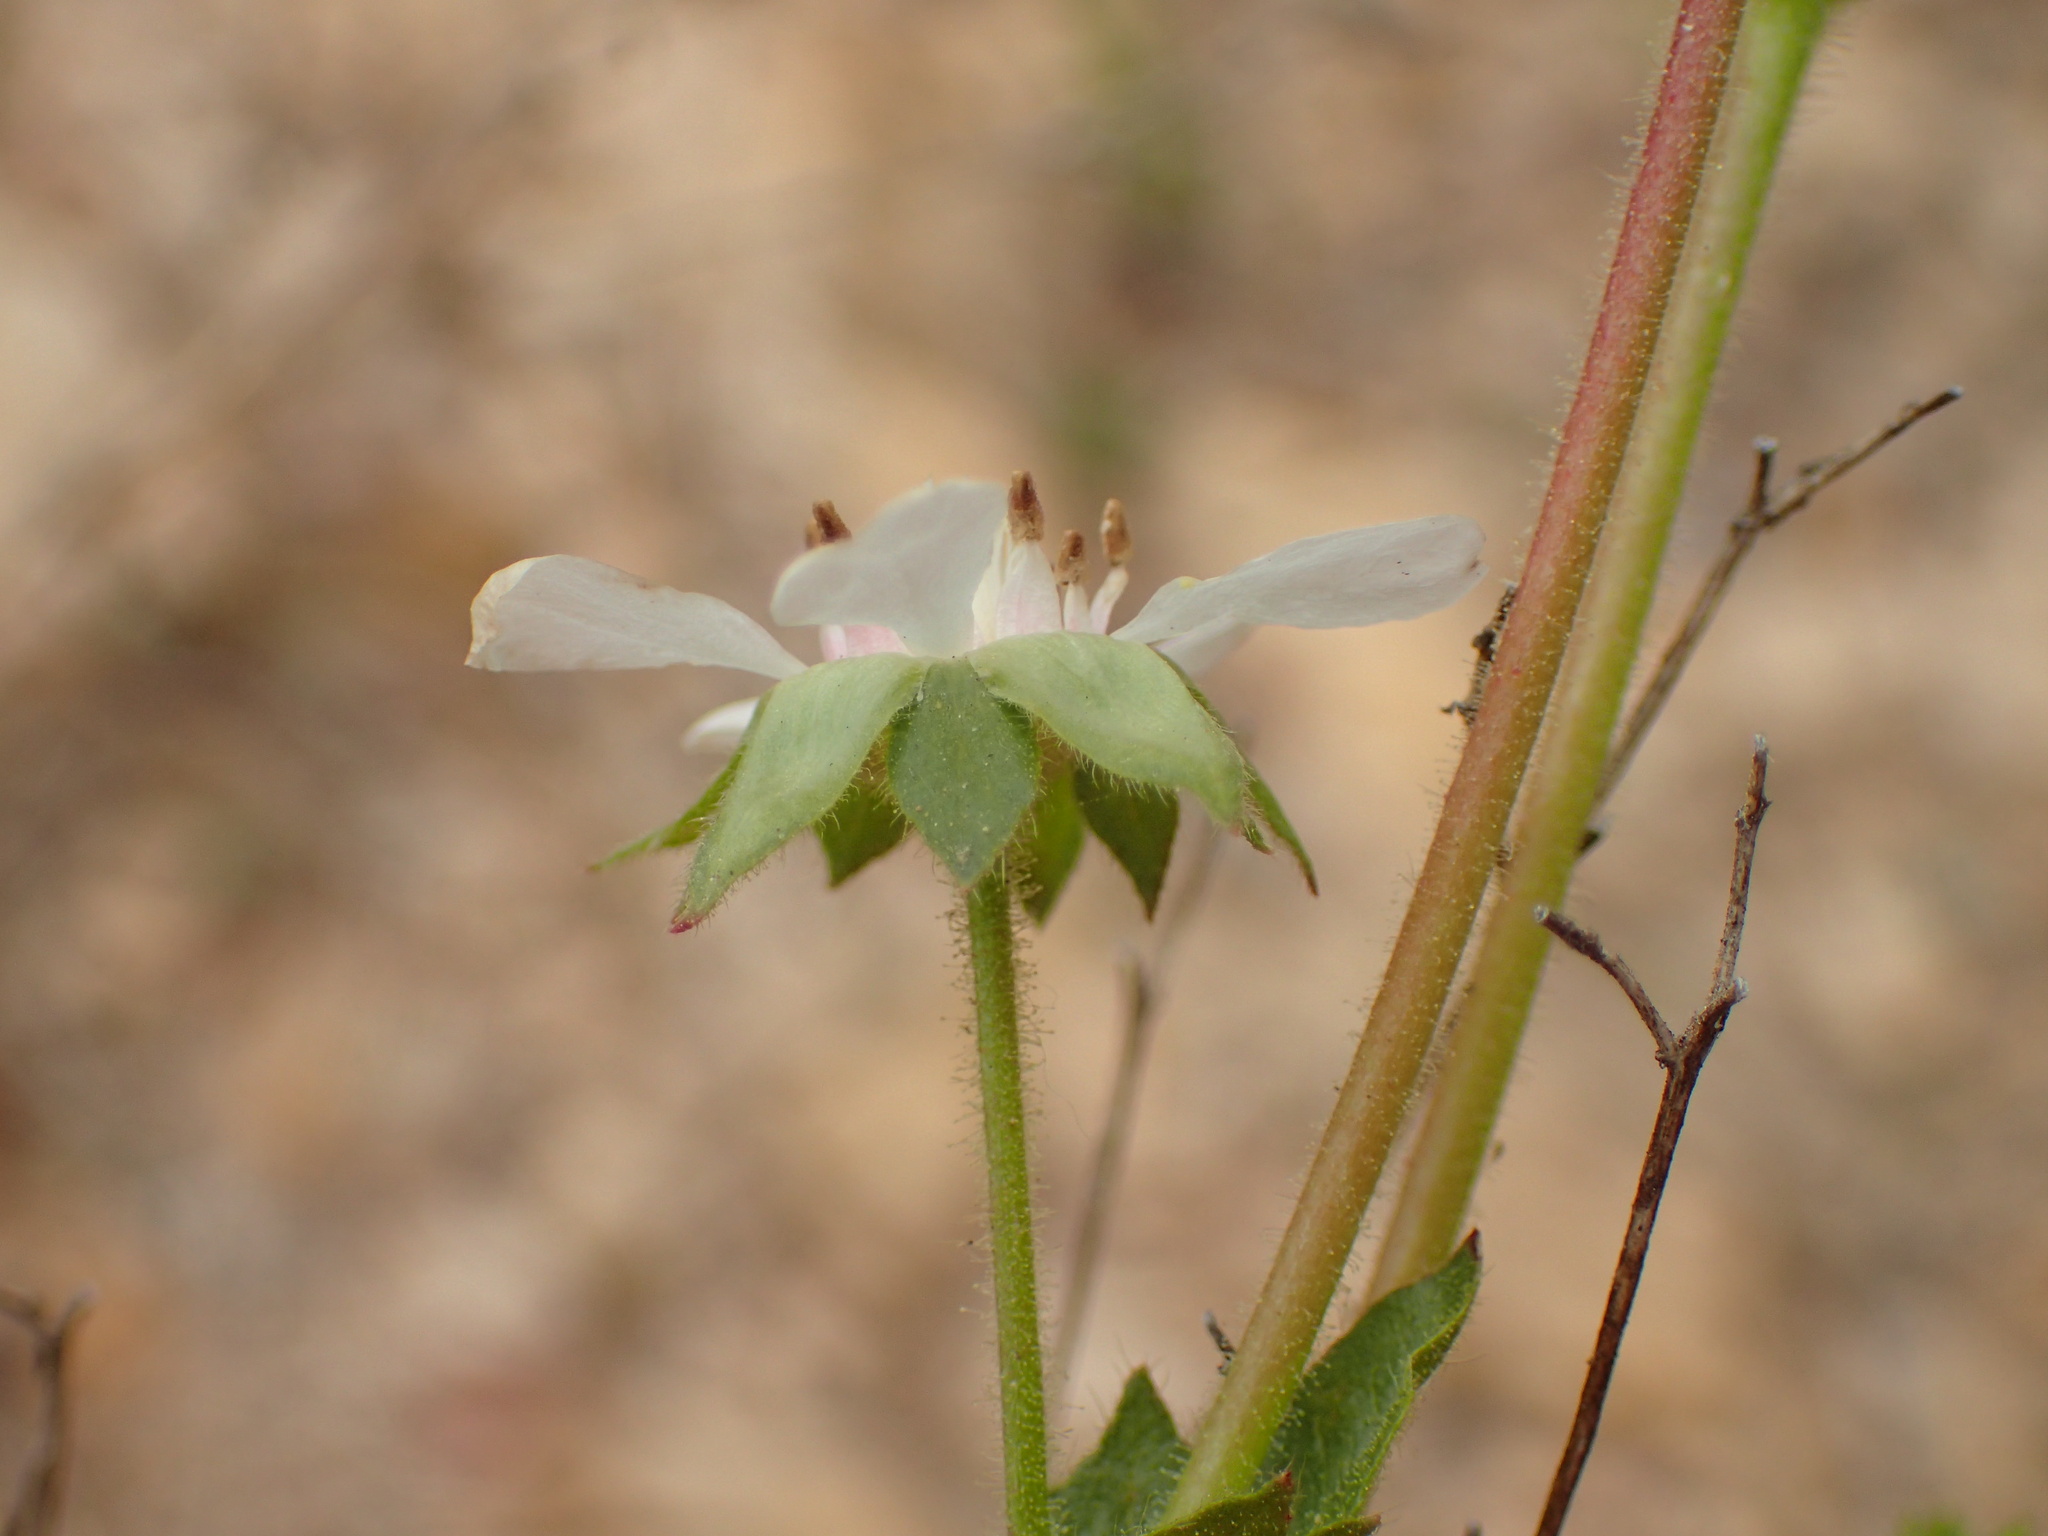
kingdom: Plantae
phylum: Tracheophyta
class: Magnoliopsida
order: Rosales
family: Rosaceae
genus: Potentilla
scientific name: Potentilla
